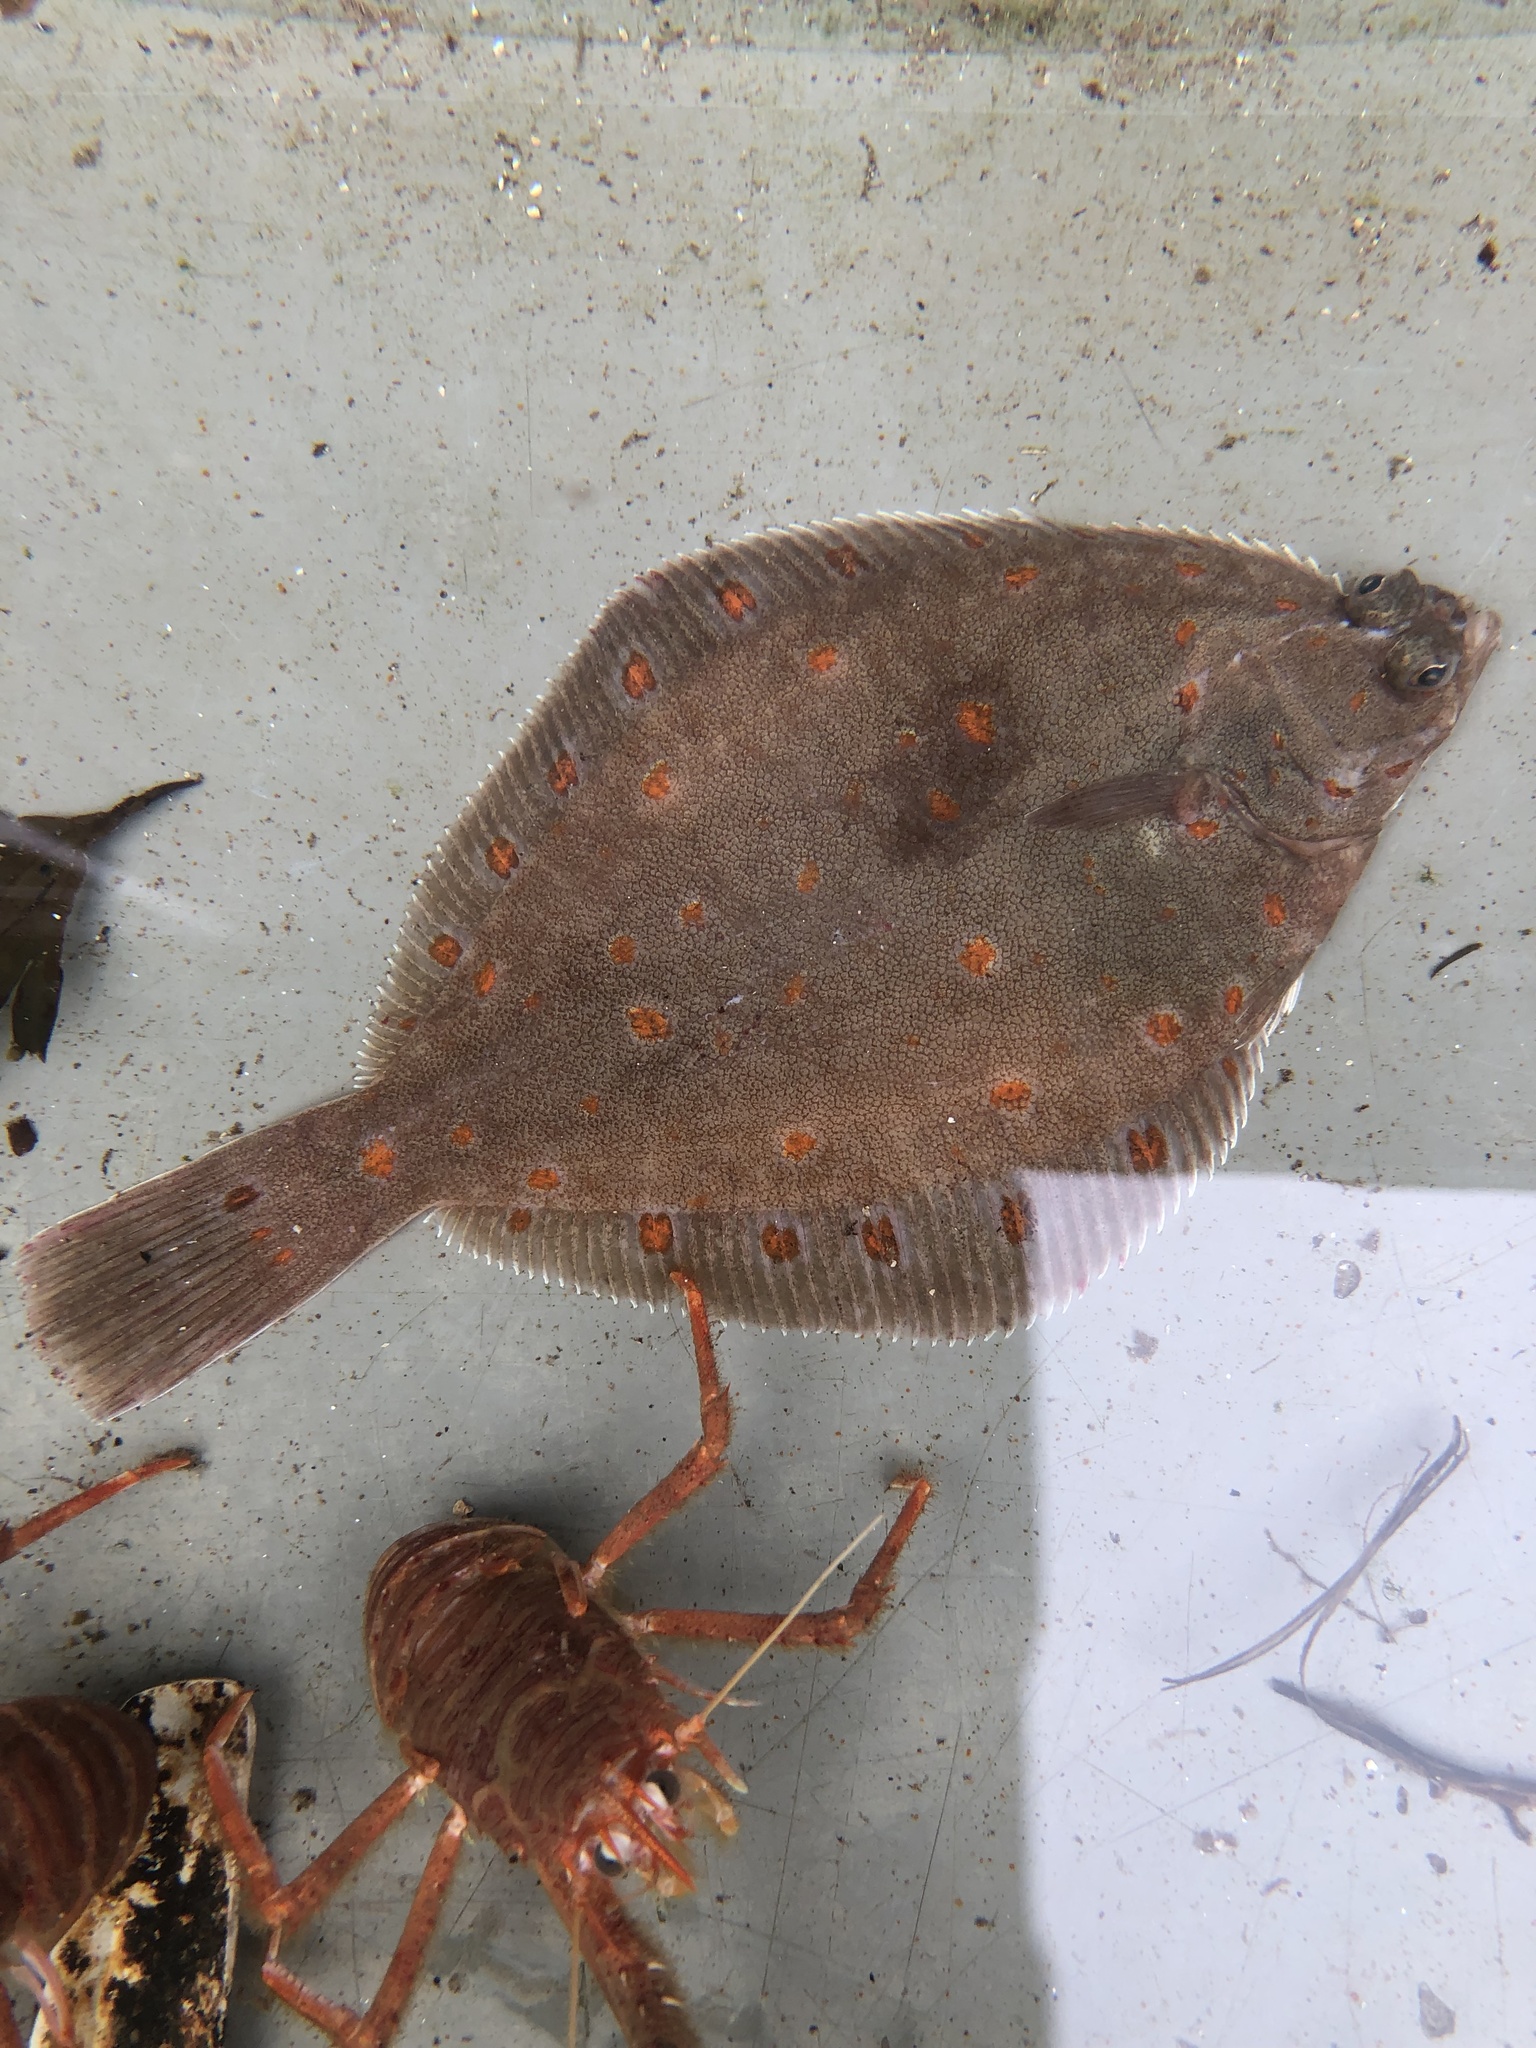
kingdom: Animalia
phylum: Chordata
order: Pleuronectiformes
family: Pleuronectidae
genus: Pleuronectes
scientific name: Pleuronectes platessa
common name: Plaice
